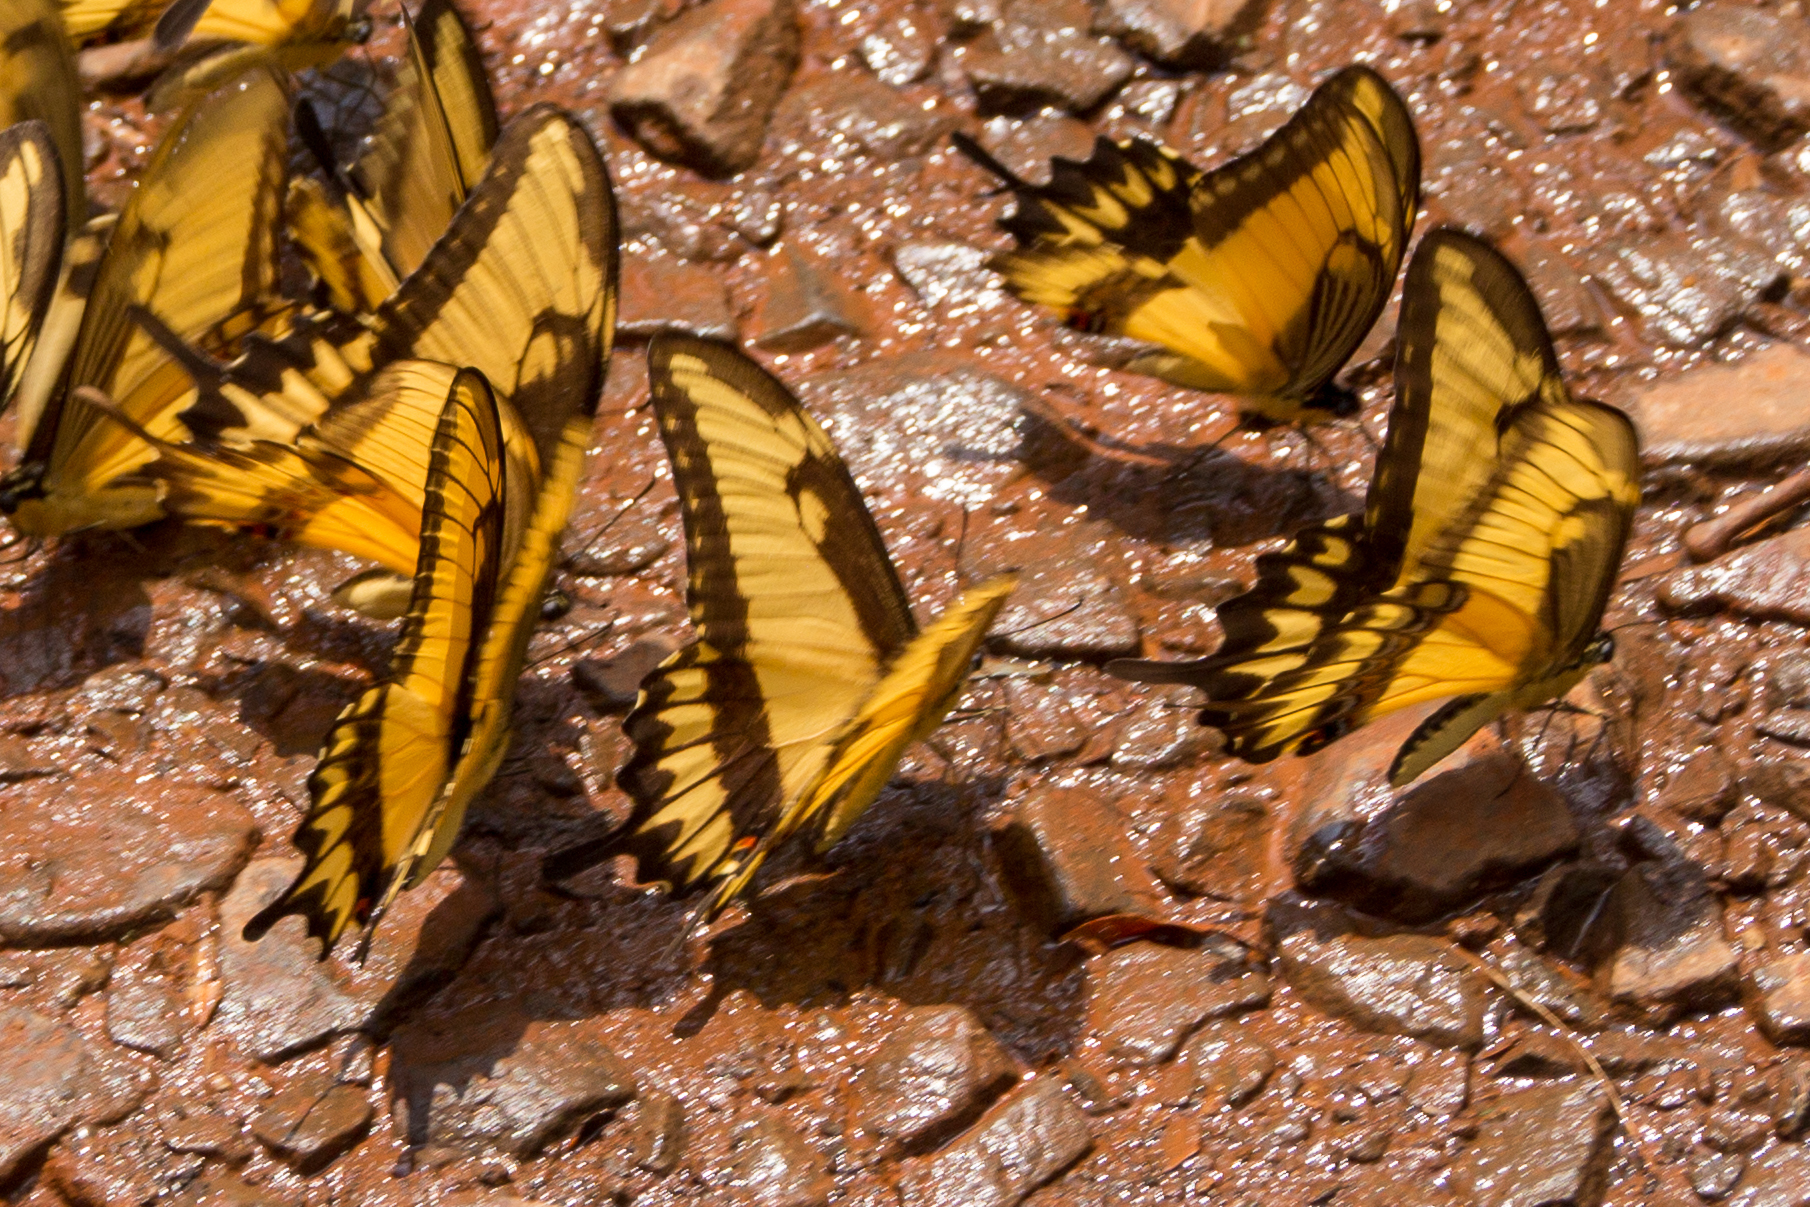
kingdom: Animalia
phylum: Arthropoda
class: Insecta
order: Lepidoptera
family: Papilionidae
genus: Papilio
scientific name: Papilio astyalus
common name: Astyalus swallowtail
